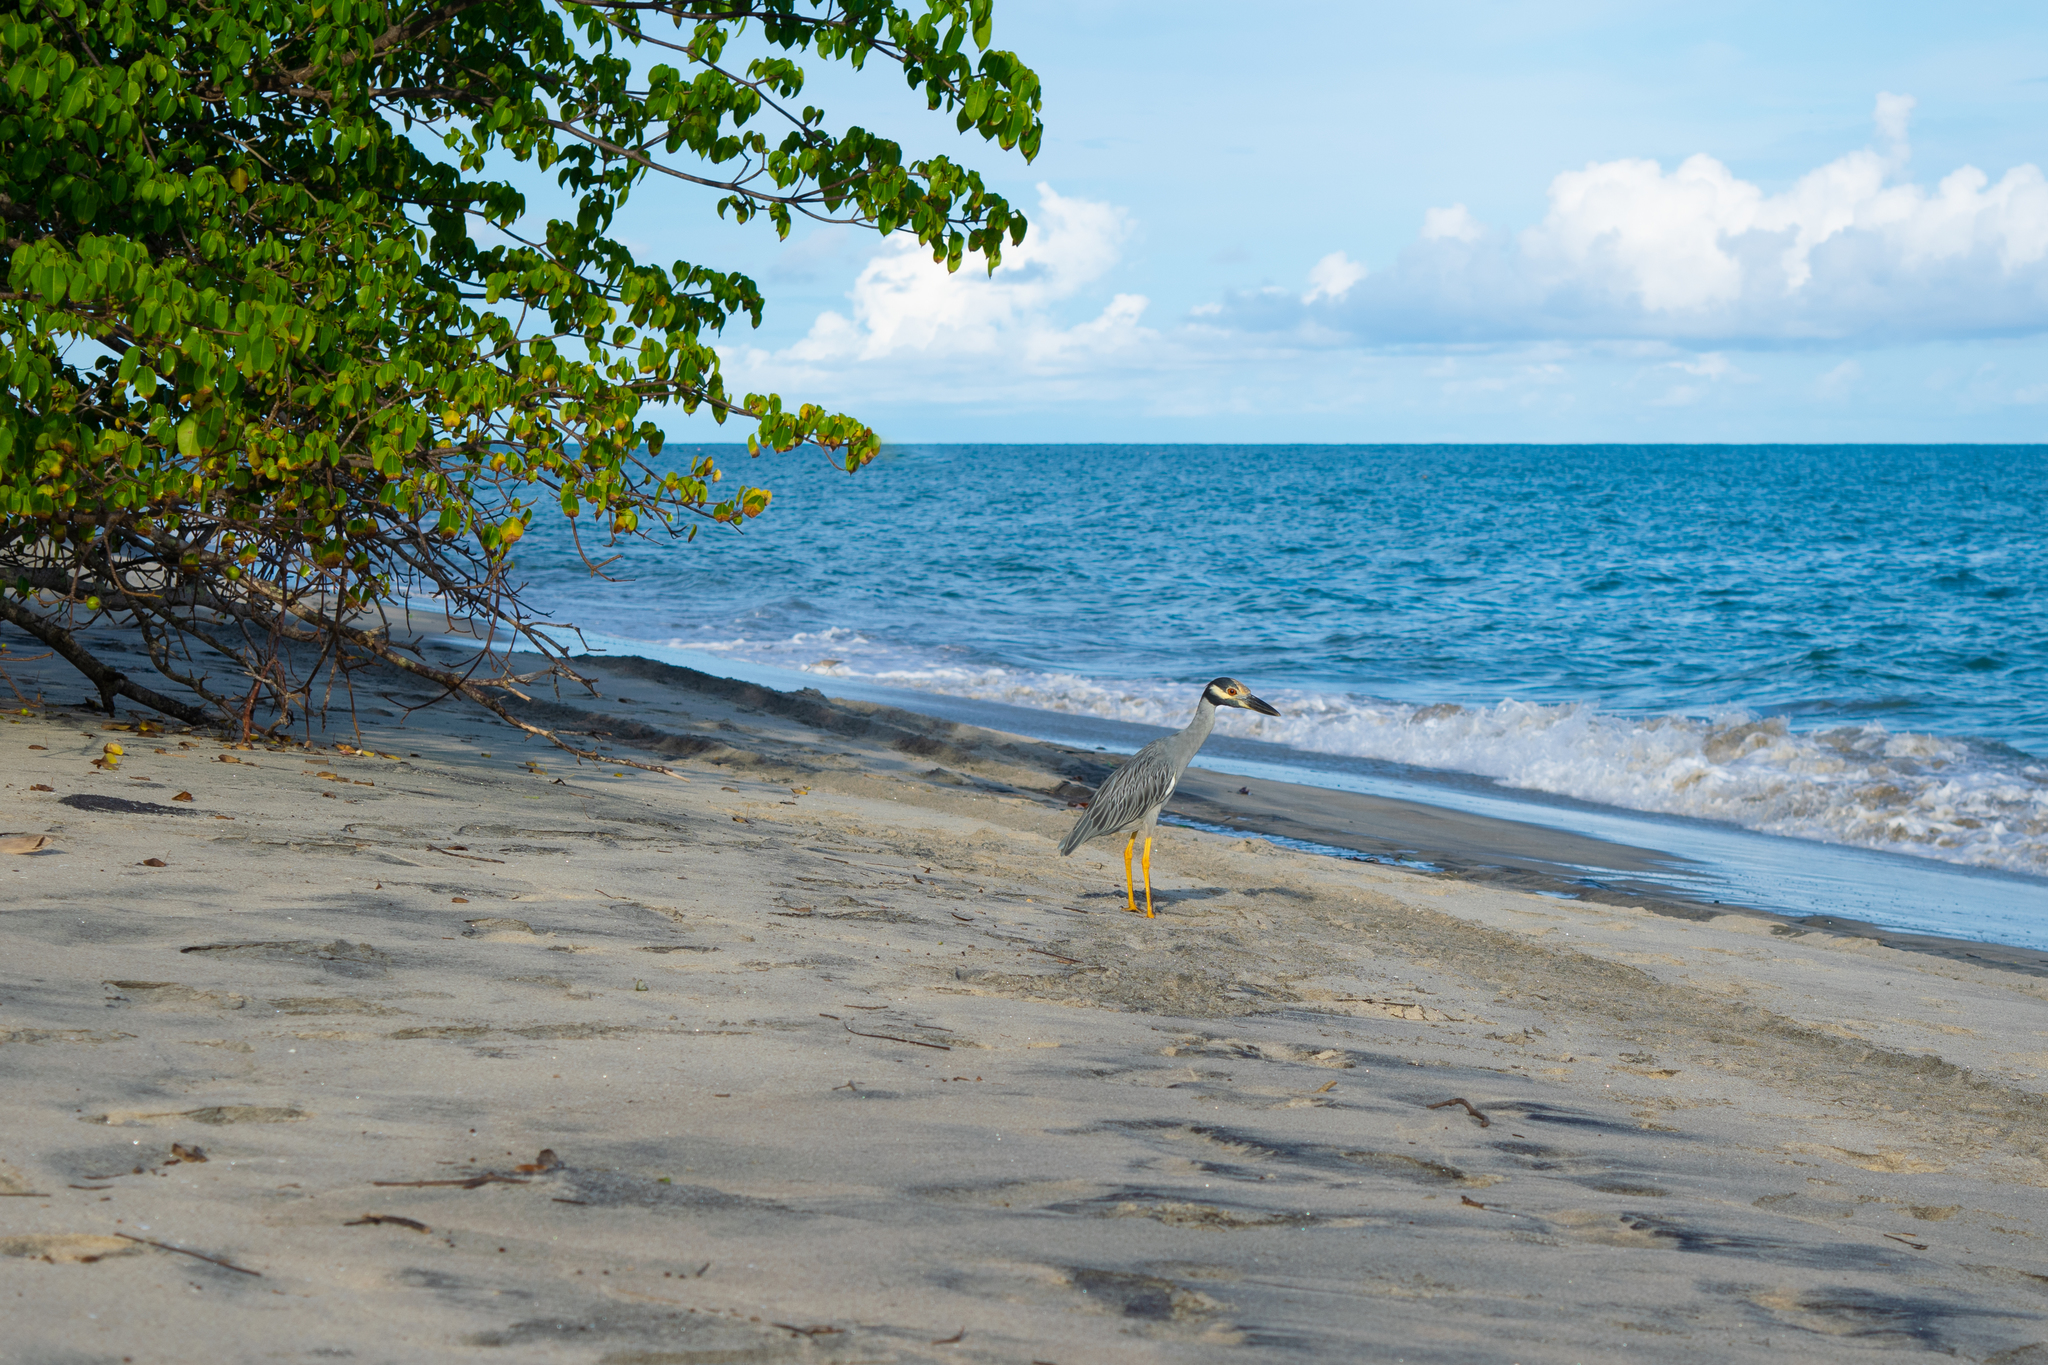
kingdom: Animalia
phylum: Chordata
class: Aves
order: Pelecaniformes
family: Ardeidae
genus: Nyctanassa
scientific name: Nyctanassa violacea
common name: Yellow-crowned night heron
